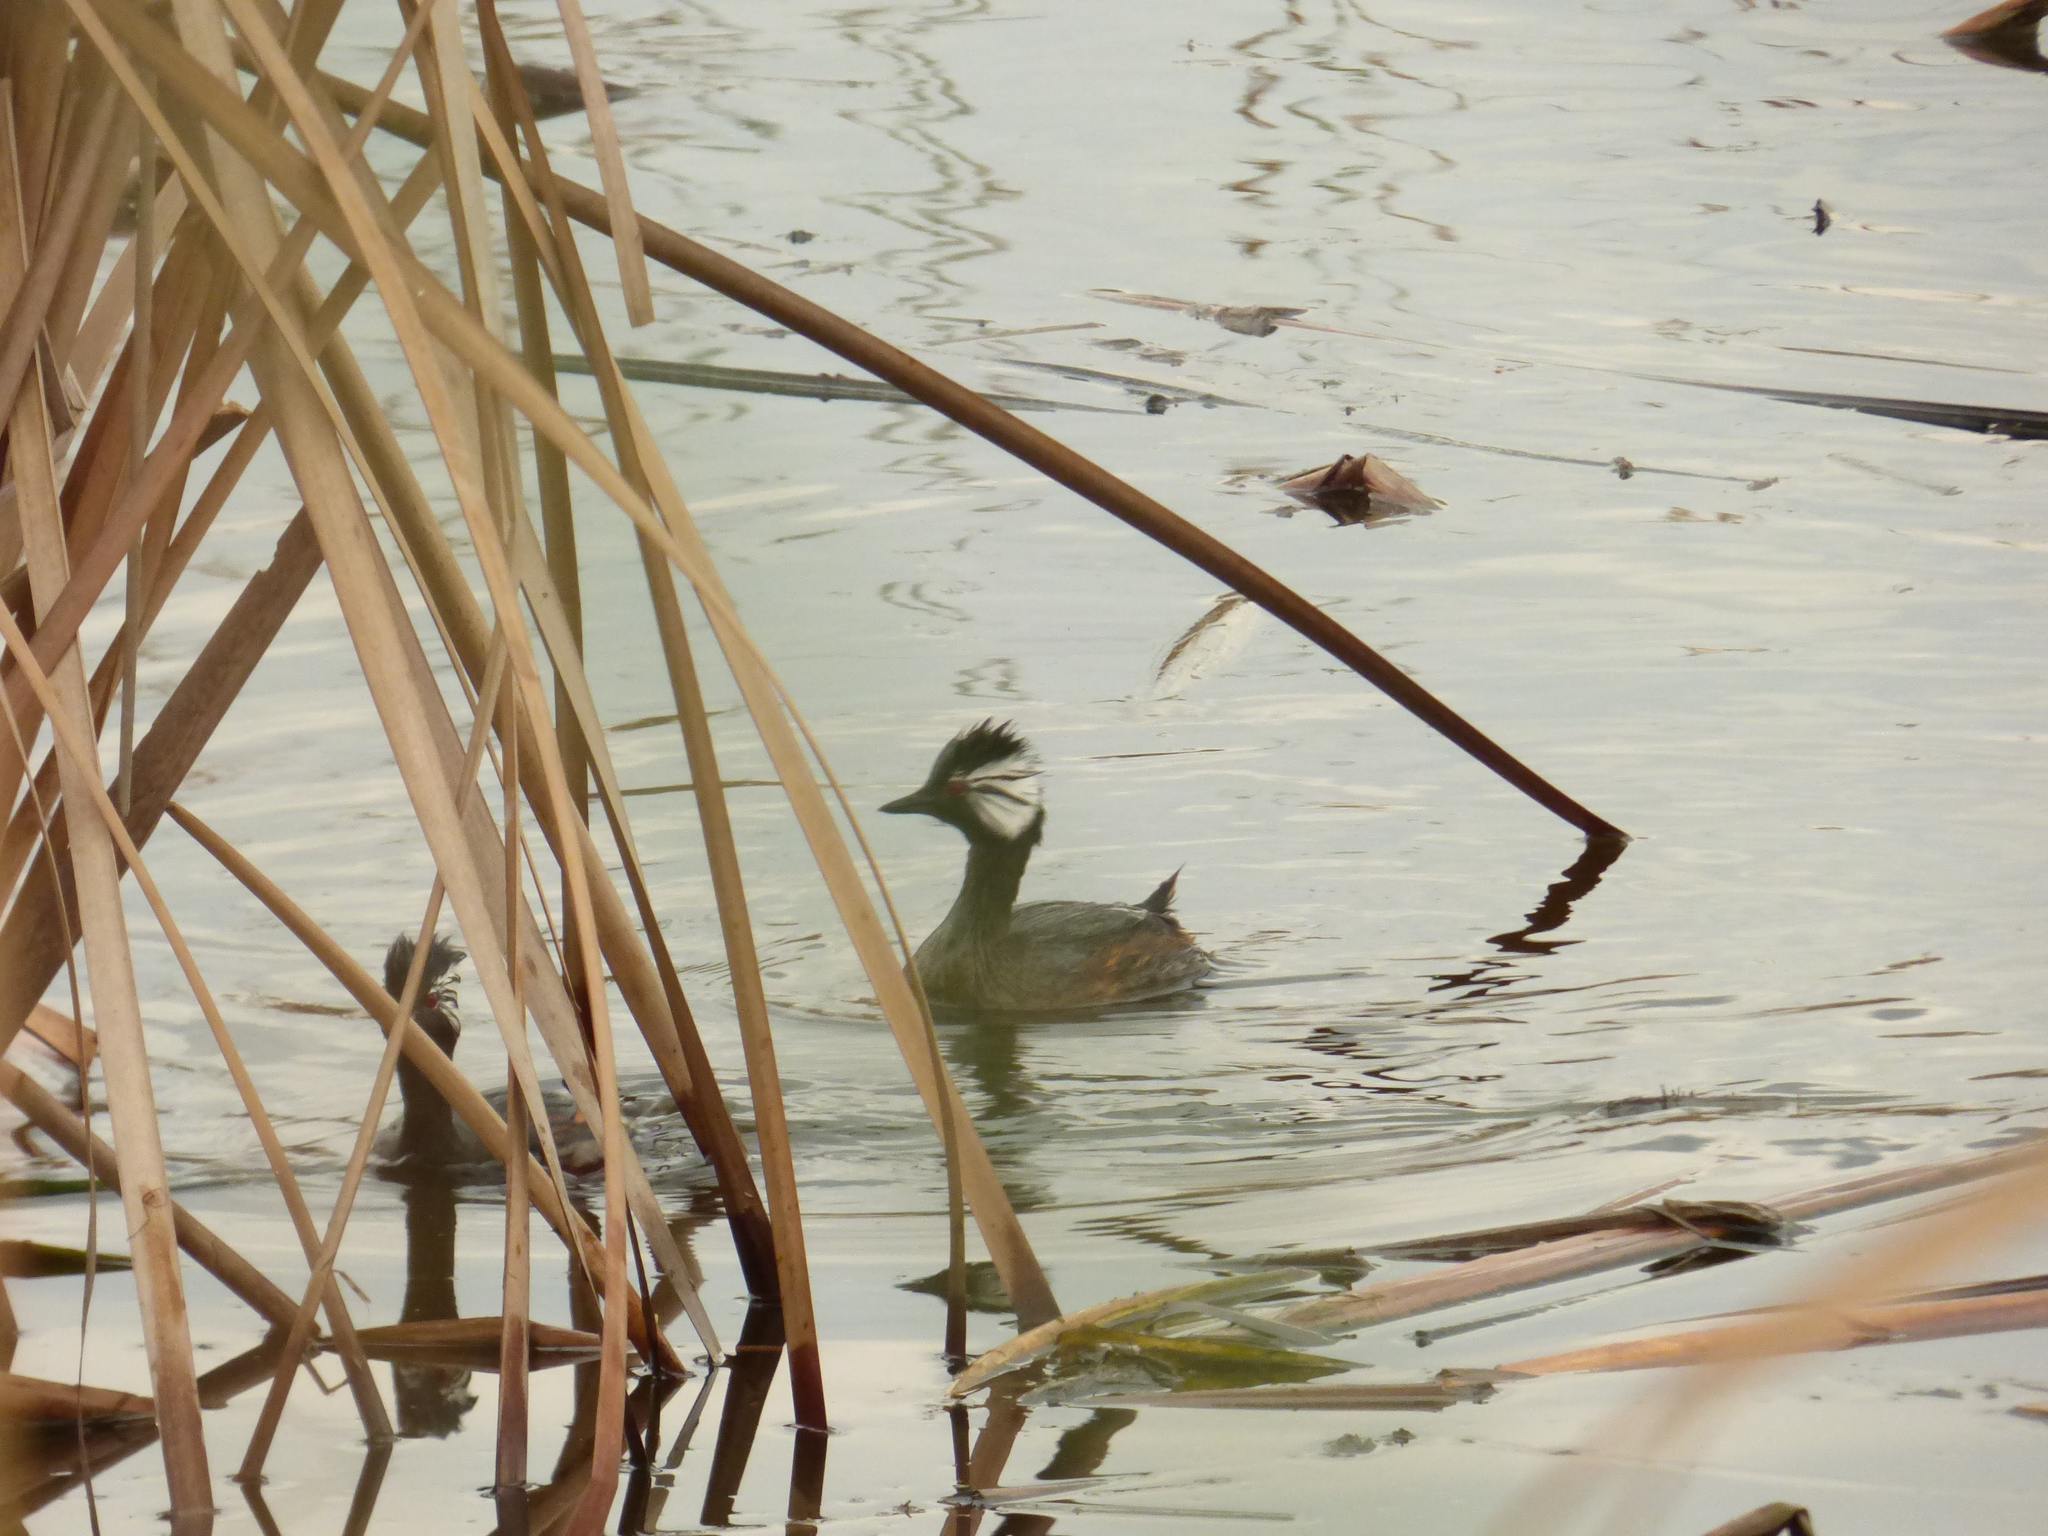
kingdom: Animalia
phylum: Chordata
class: Aves
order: Podicipediformes
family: Podicipedidae
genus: Rollandia
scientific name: Rollandia rolland
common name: White-tufted grebe
